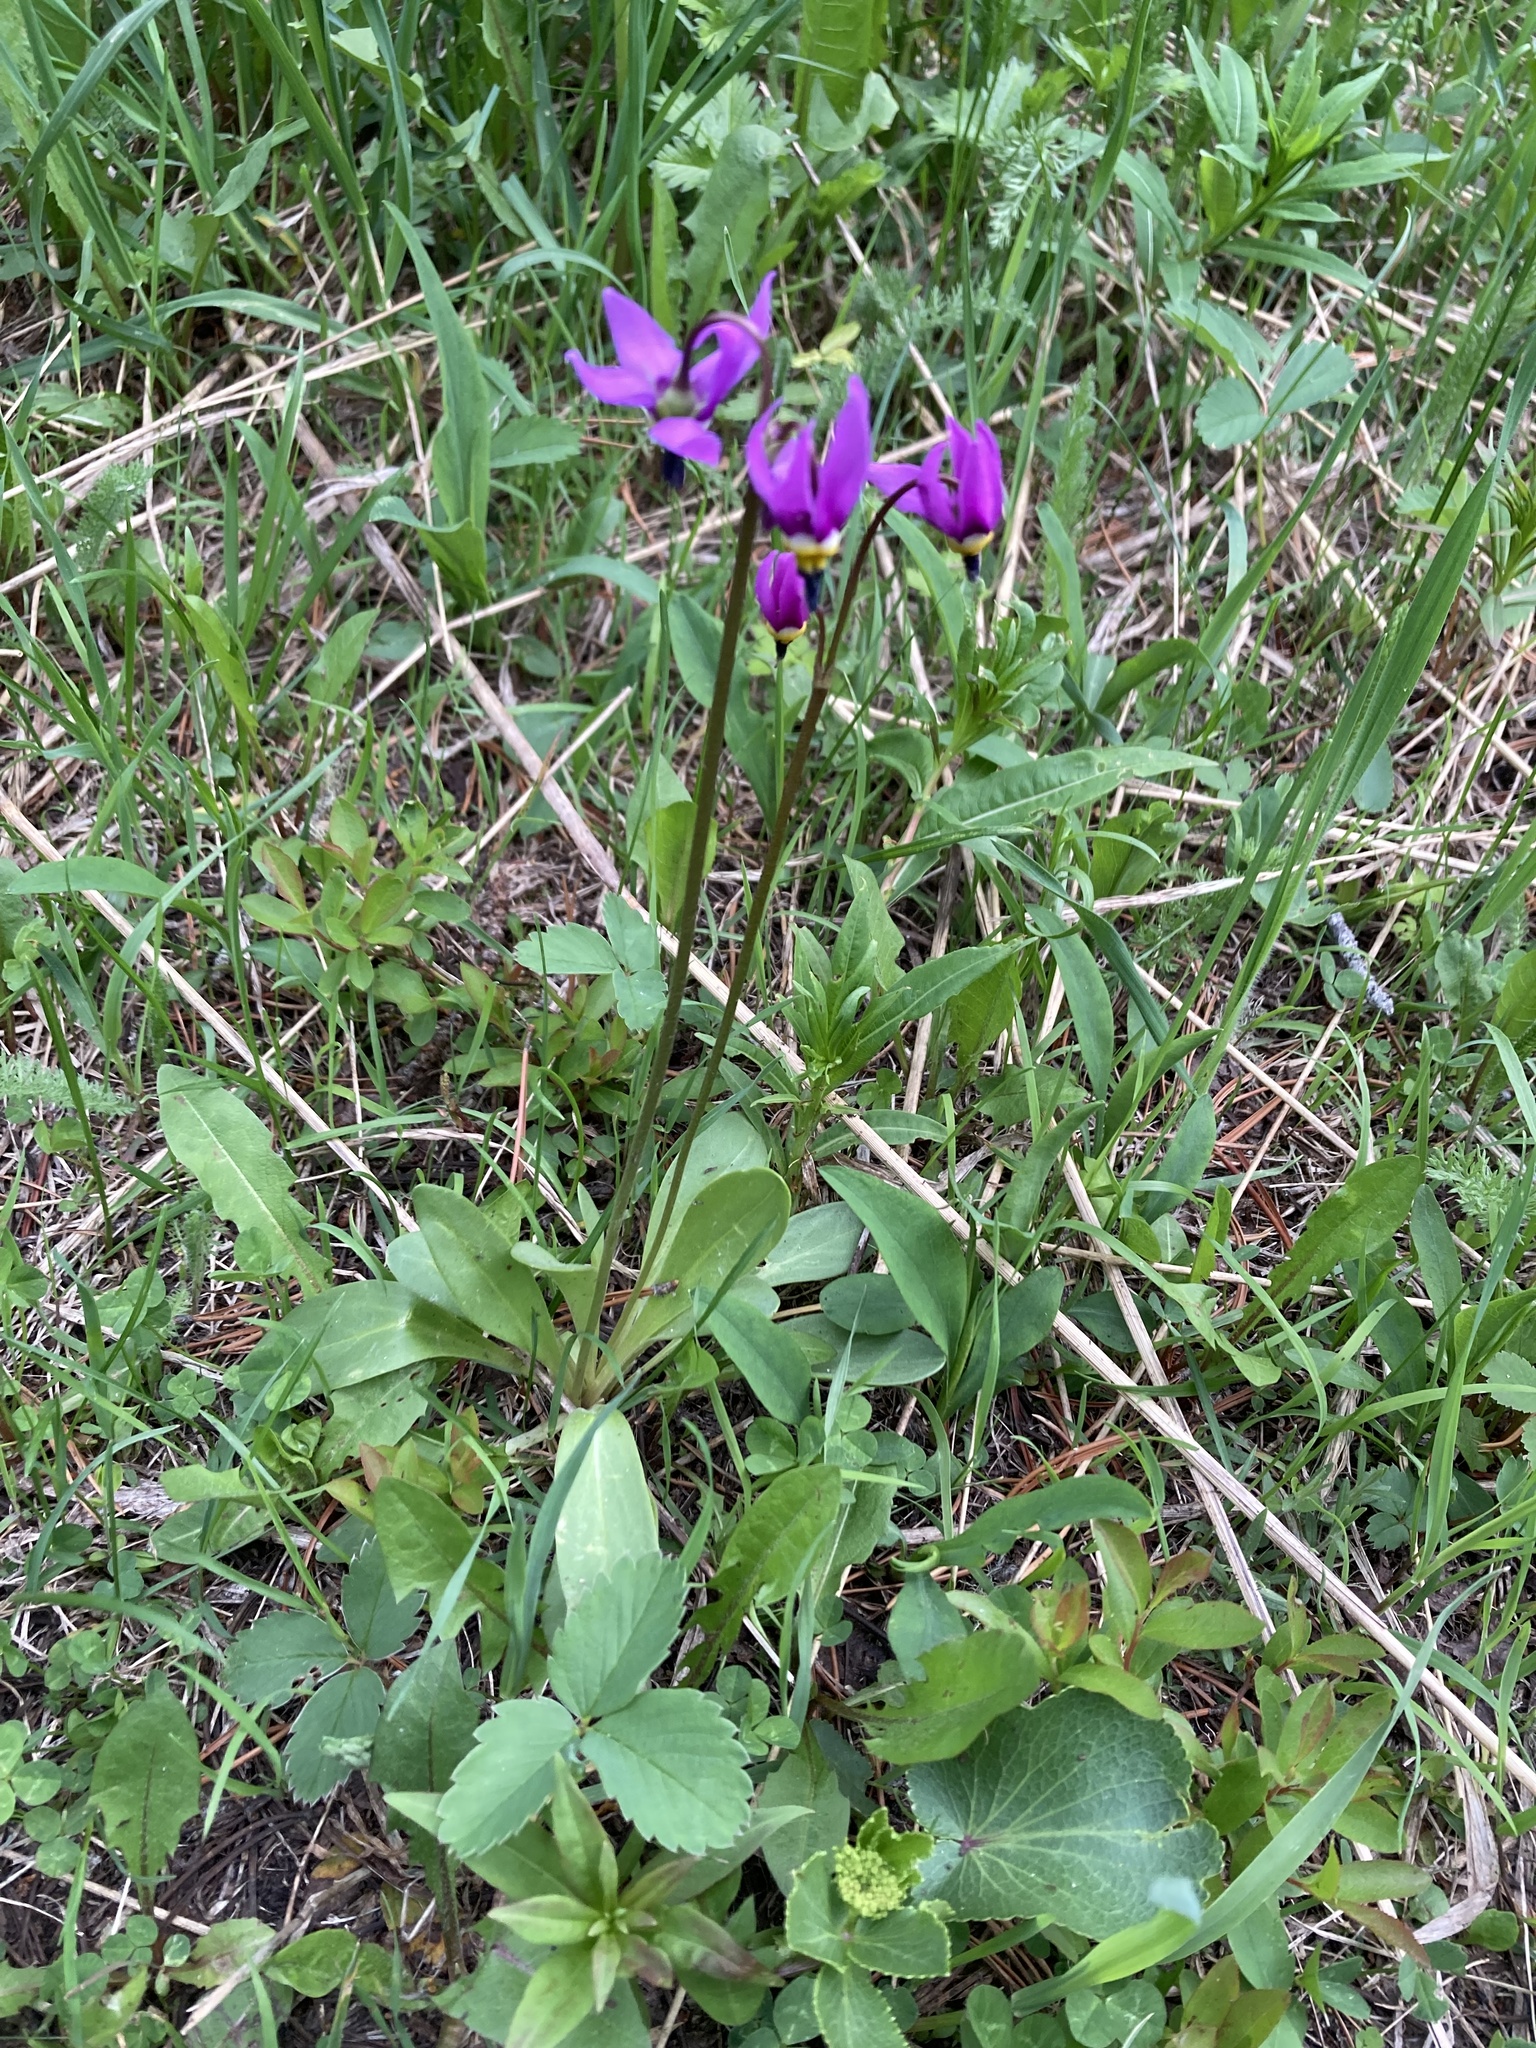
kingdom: Plantae
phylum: Tracheophyta
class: Magnoliopsida
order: Ericales
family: Primulaceae
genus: Dodecatheon
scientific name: Dodecatheon pulchellum
